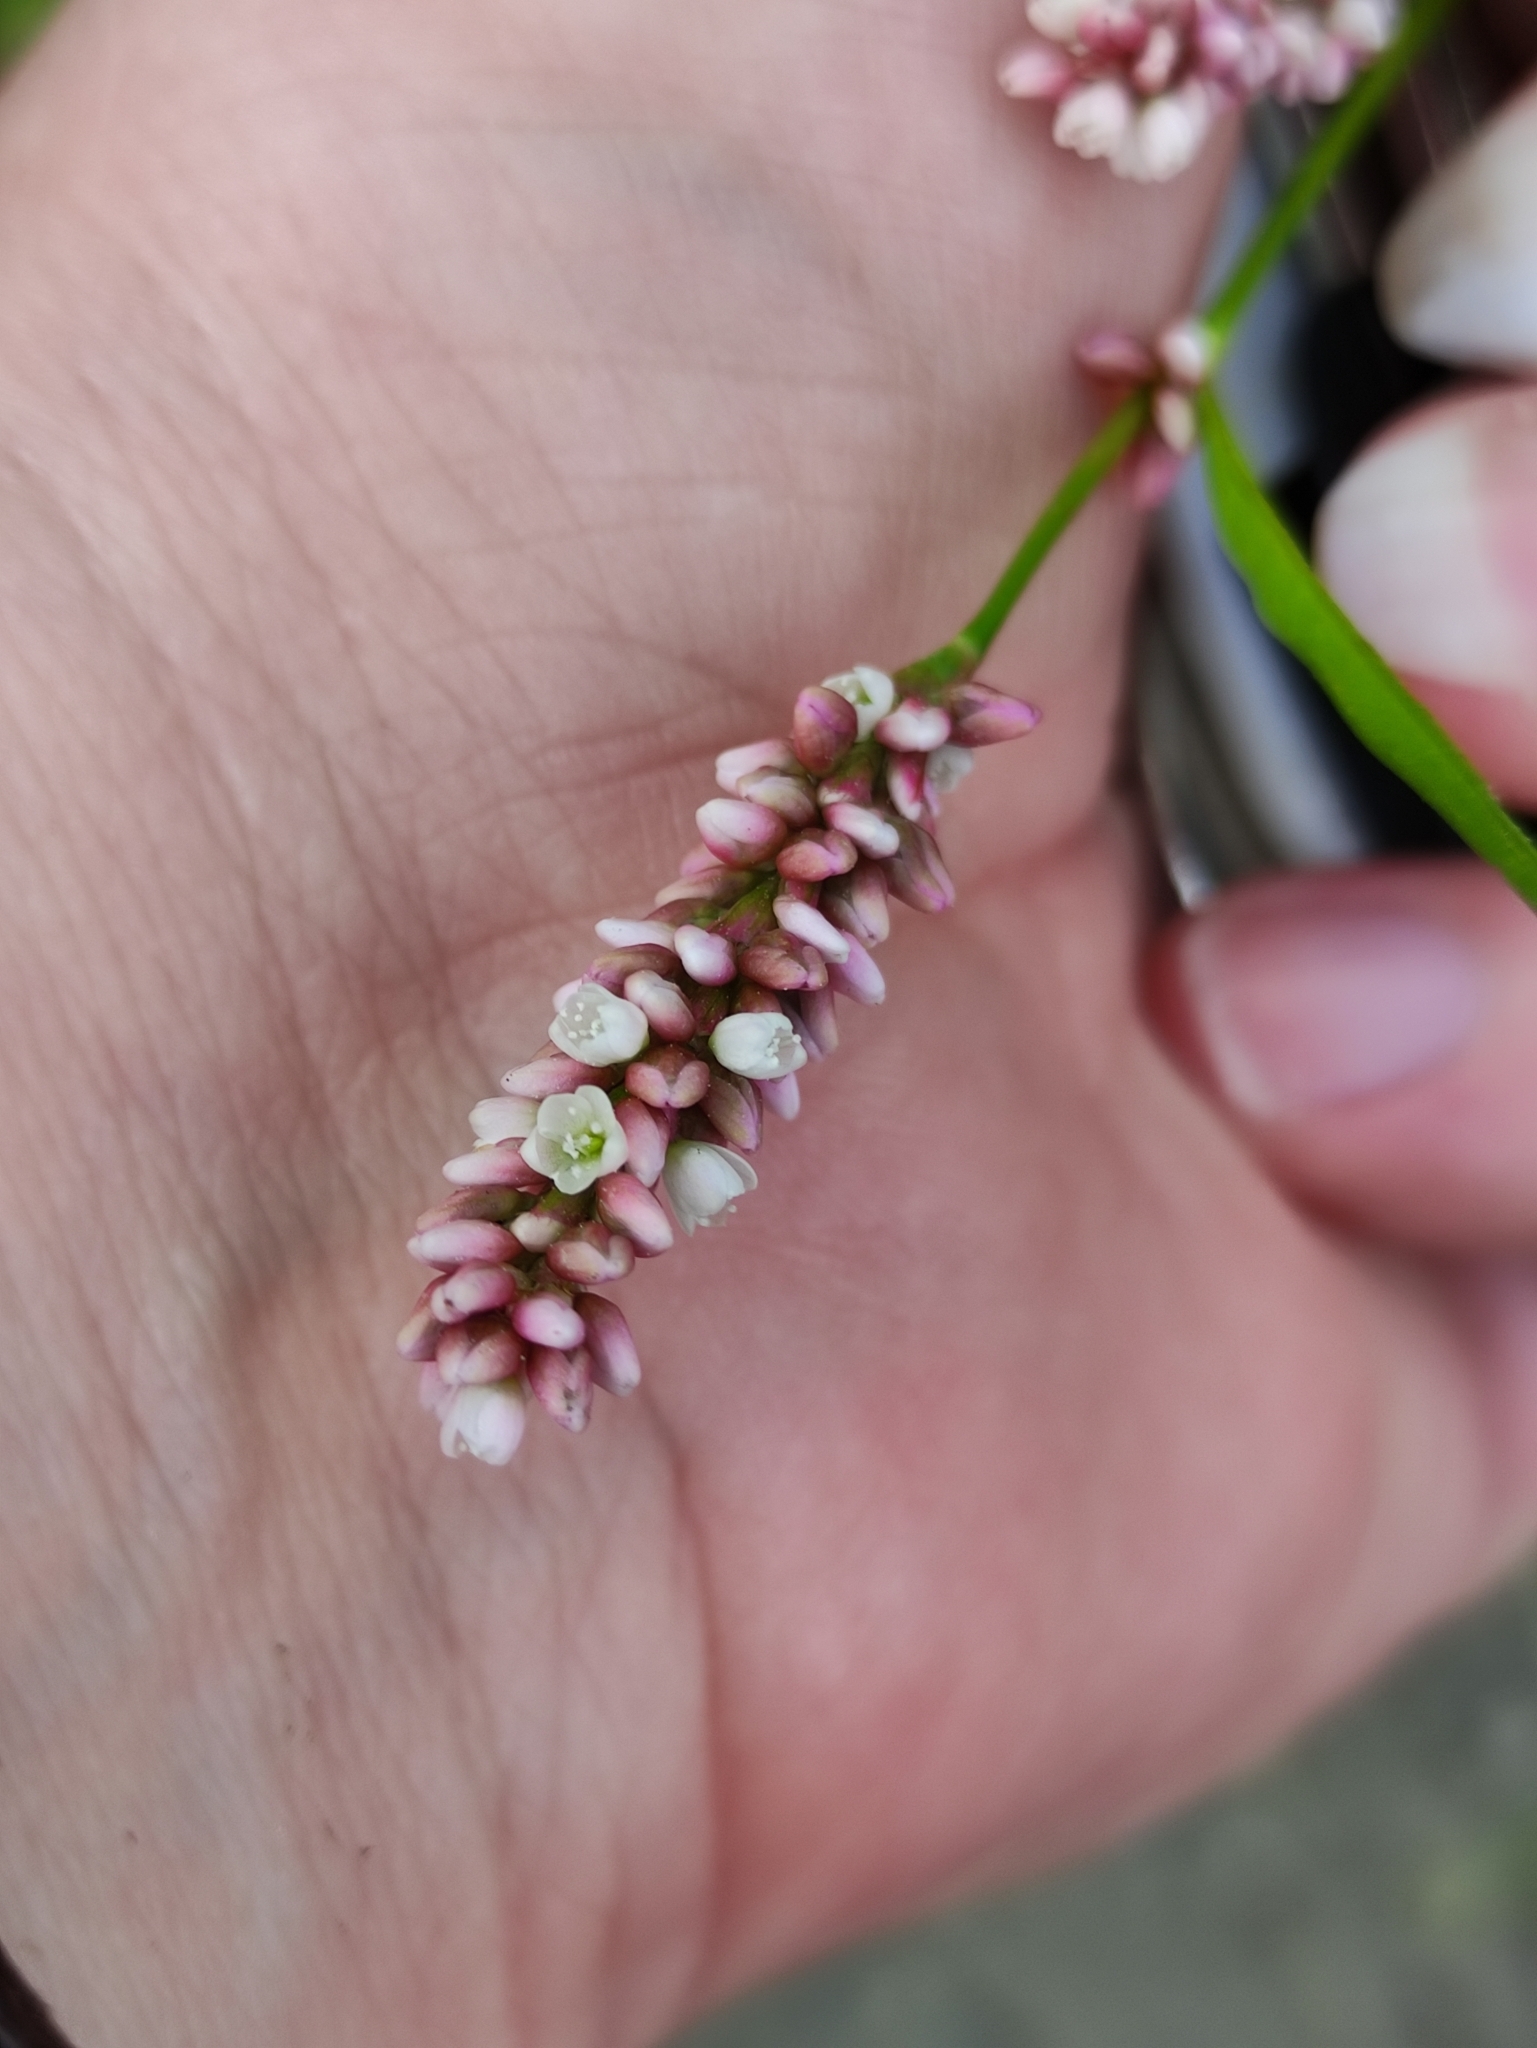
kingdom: Plantae
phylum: Tracheophyta
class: Magnoliopsida
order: Caryophyllales
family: Polygonaceae
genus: Persicaria
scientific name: Persicaria maculosa
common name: Redshank
